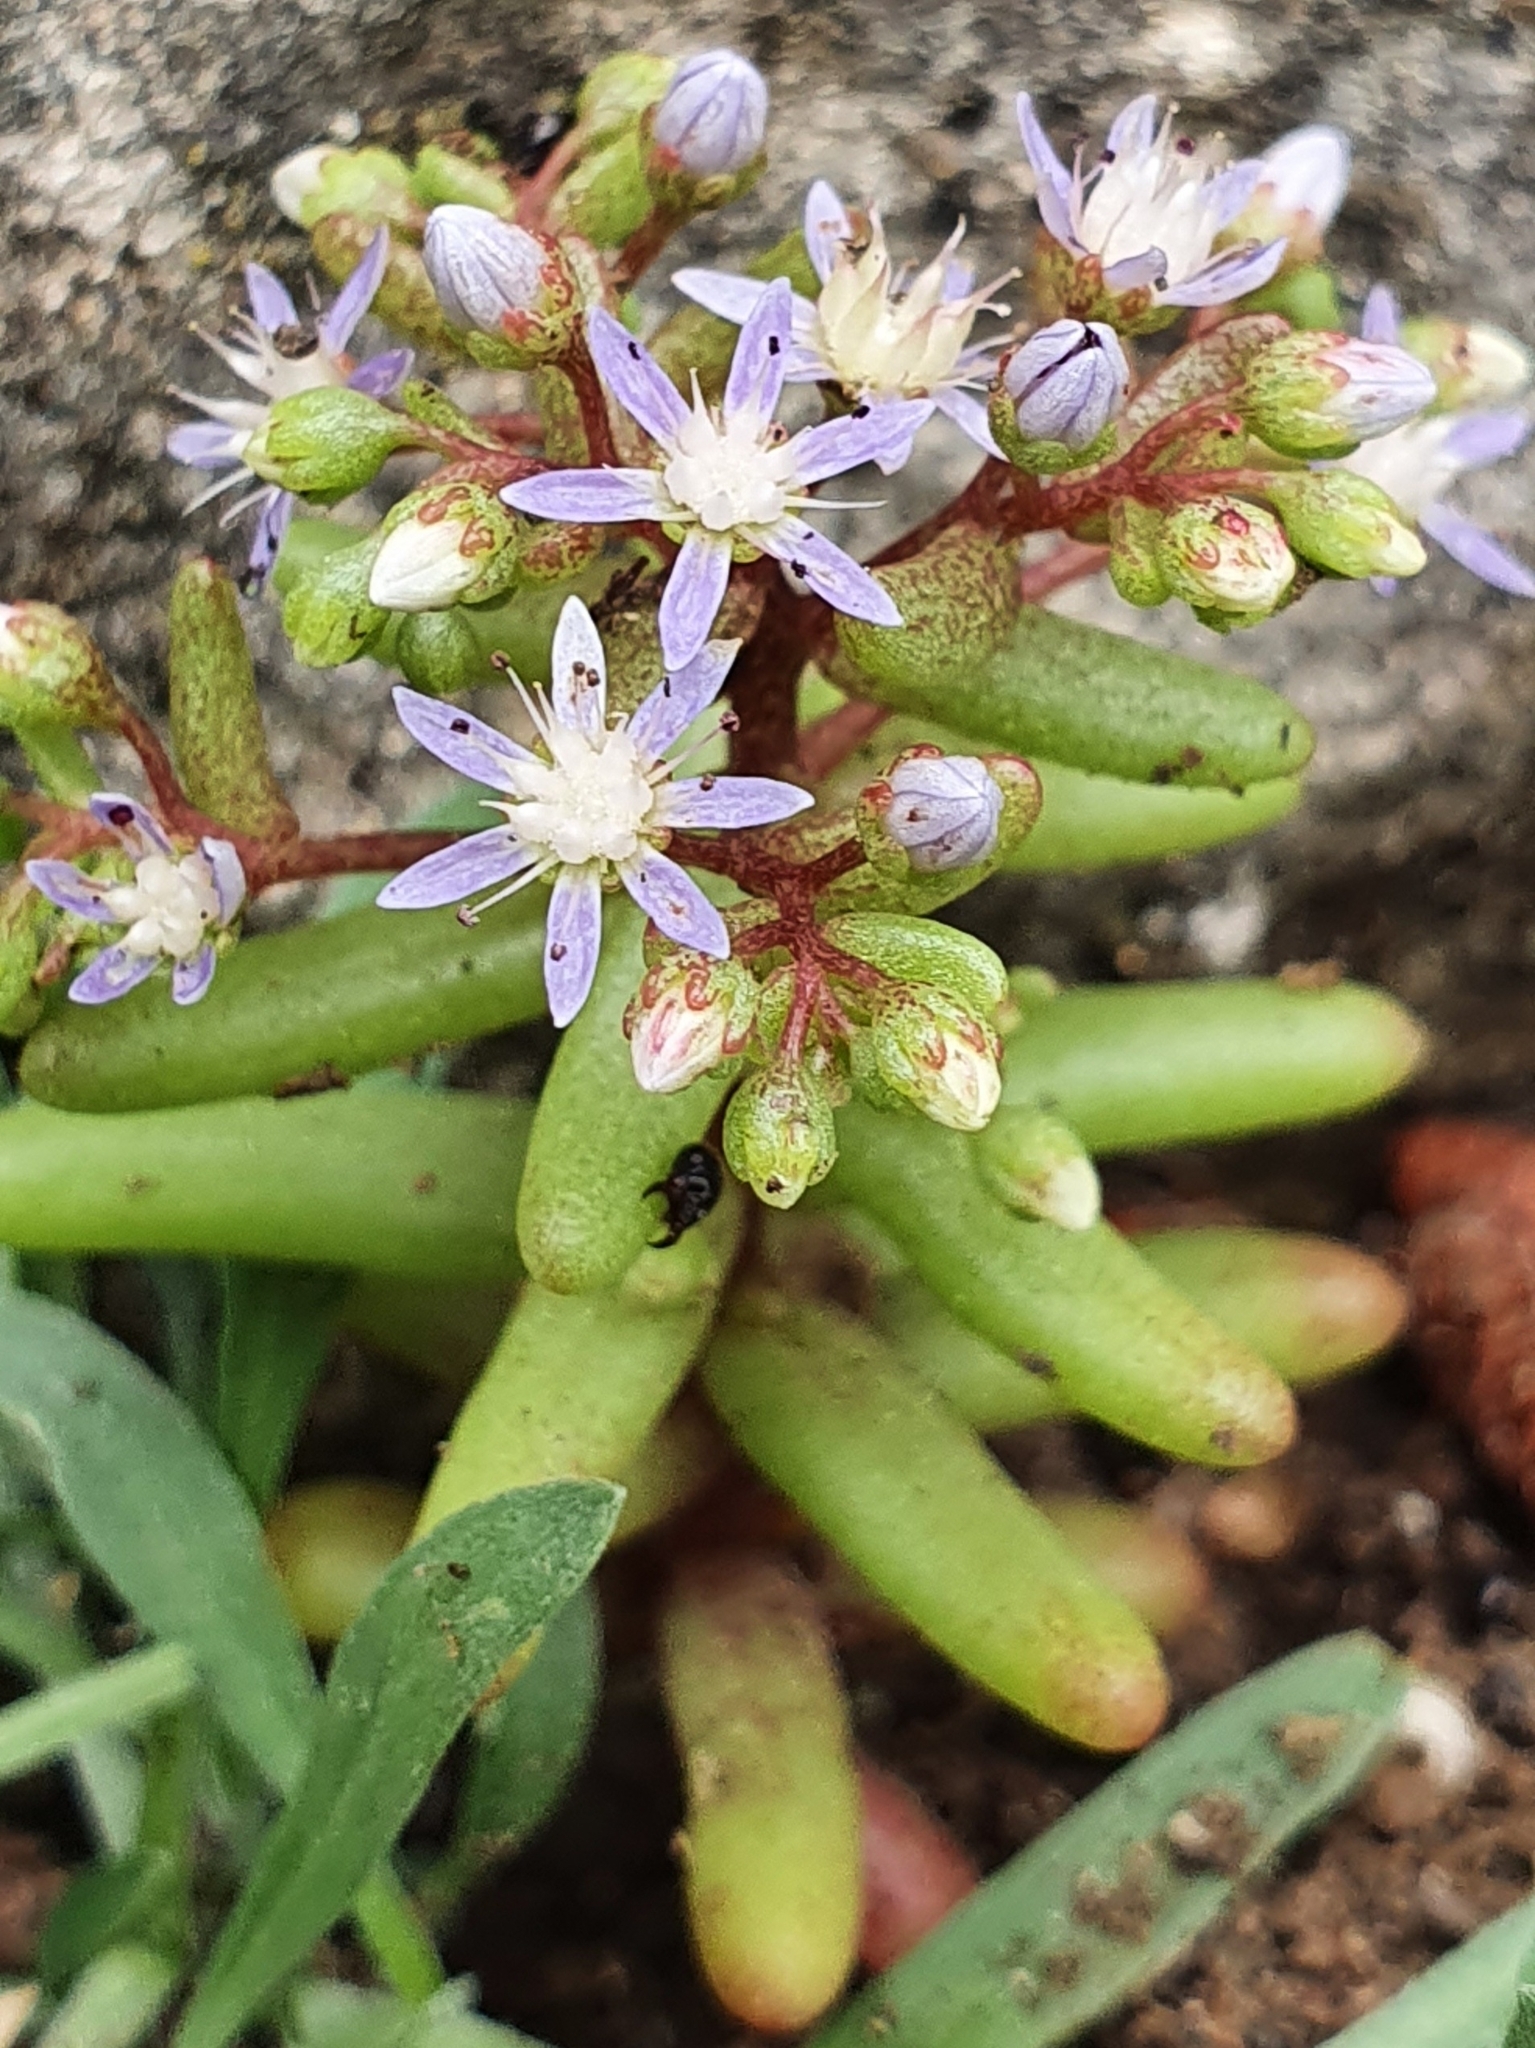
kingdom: Plantae
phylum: Tracheophyta
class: Magnoliopsida
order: Saxifragales
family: Crassulaceae
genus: Sedum
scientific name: Sedum caeruleum
